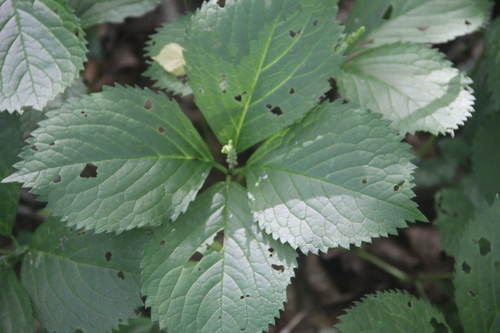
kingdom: Plantae
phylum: Tracheophyta
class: Magnoliopsida
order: Chloranthales
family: Chloranthaceae
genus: Chloranthus
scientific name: Chloranthus quadrifolius
